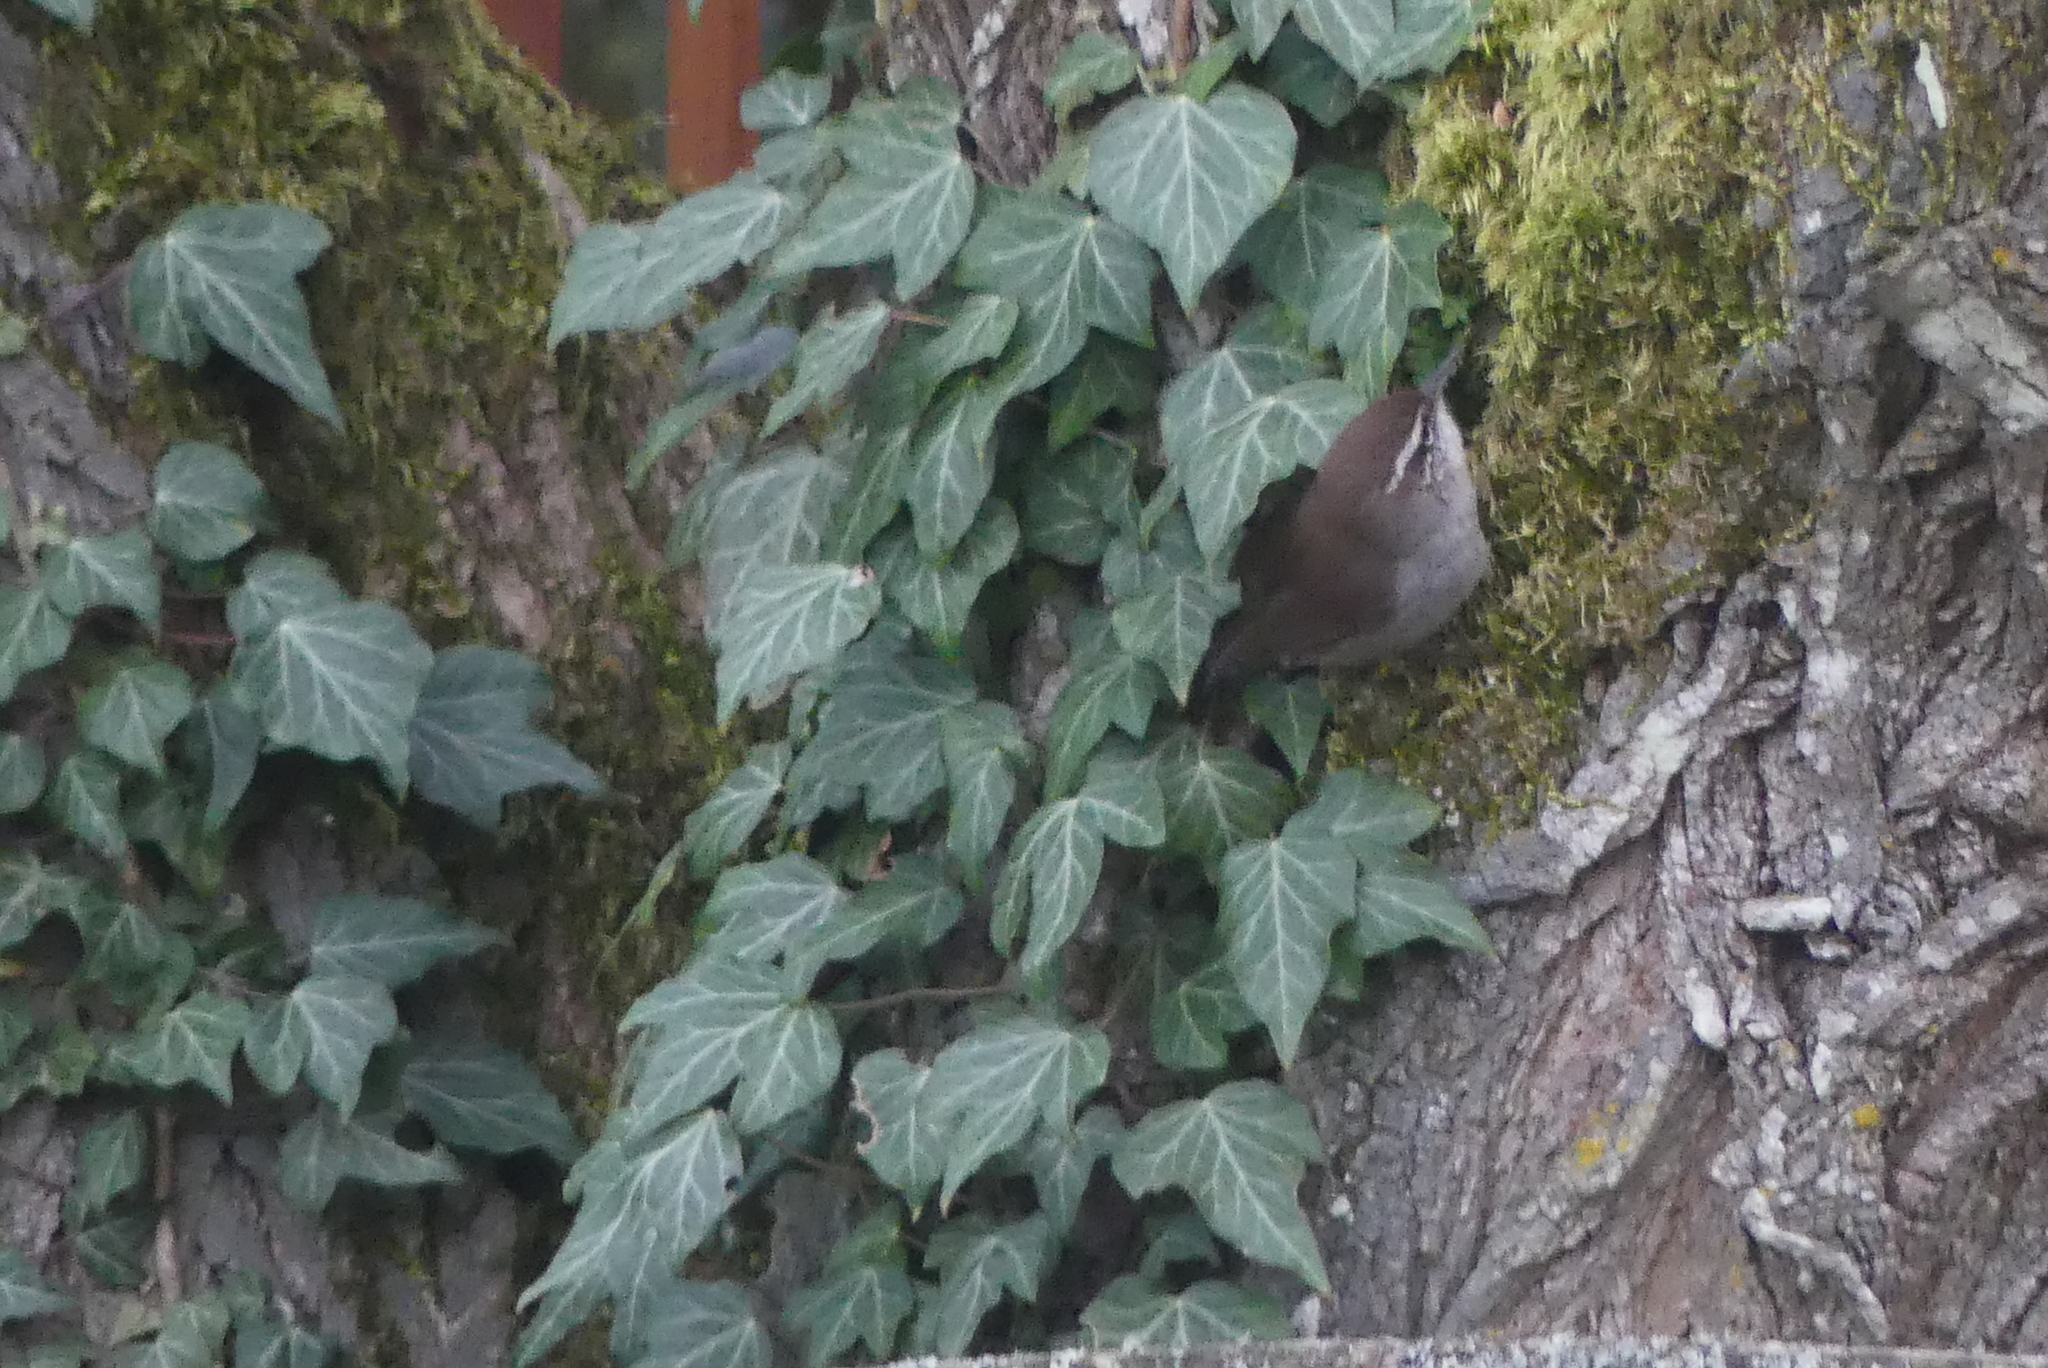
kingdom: Animalia
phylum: Chordata
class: Aves
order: Passeriformes
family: Troglodytidae
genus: Thryomanes
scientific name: Thryomanes bewickii
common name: Bewick's wren
